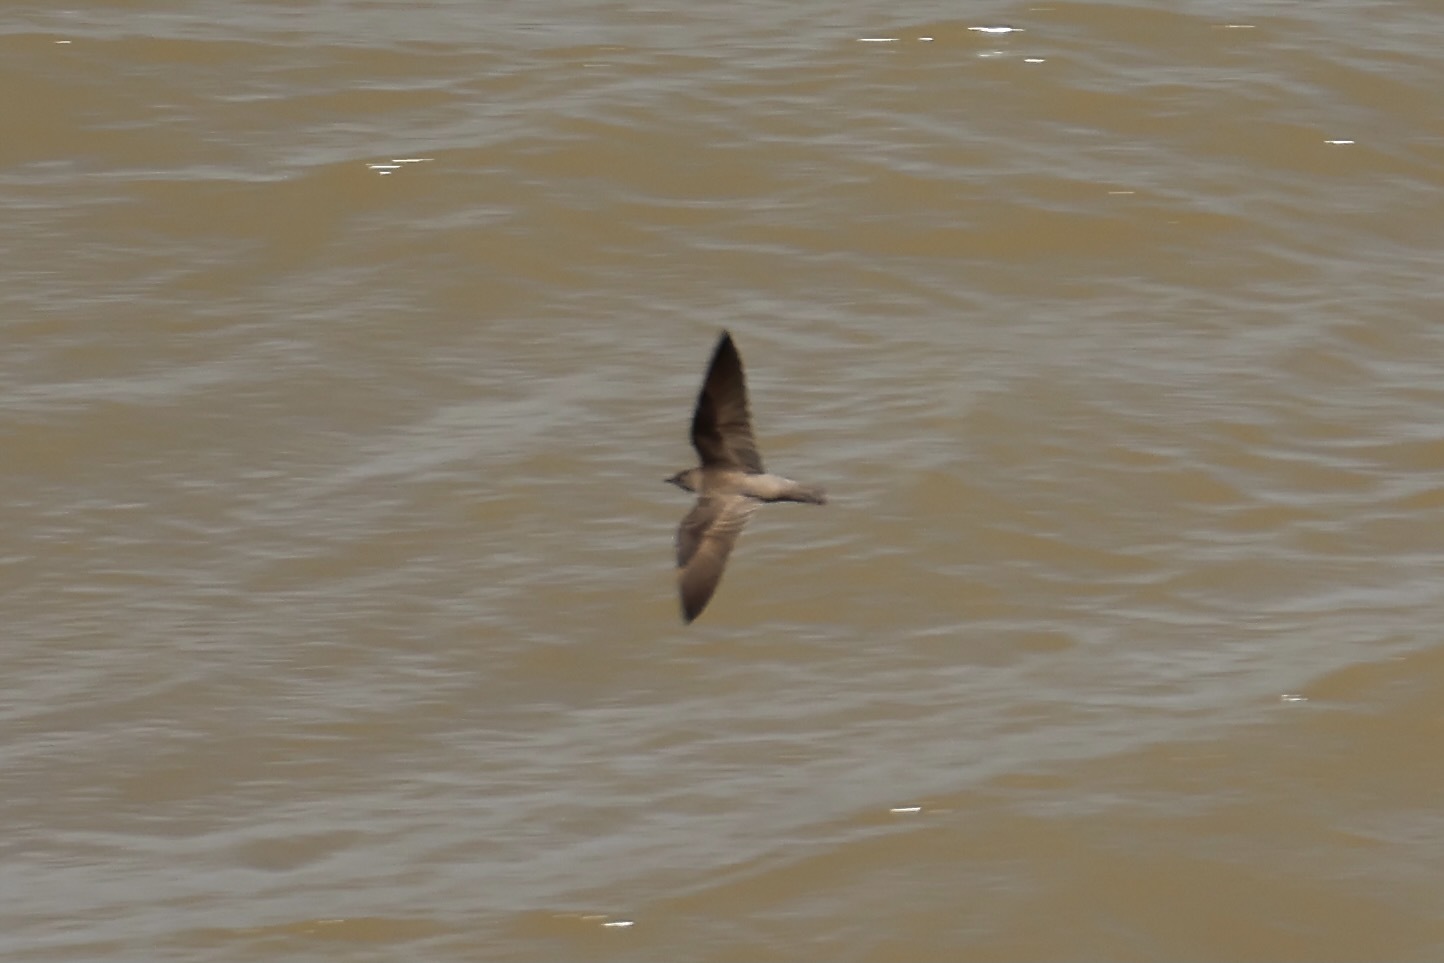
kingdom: Animalia
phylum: Chordata
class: Aves
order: Passeriformes
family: Hirundinidae
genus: Stelgidopteryx
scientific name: Stelgidopteryx serripennis
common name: Northern rough-winged swallow
